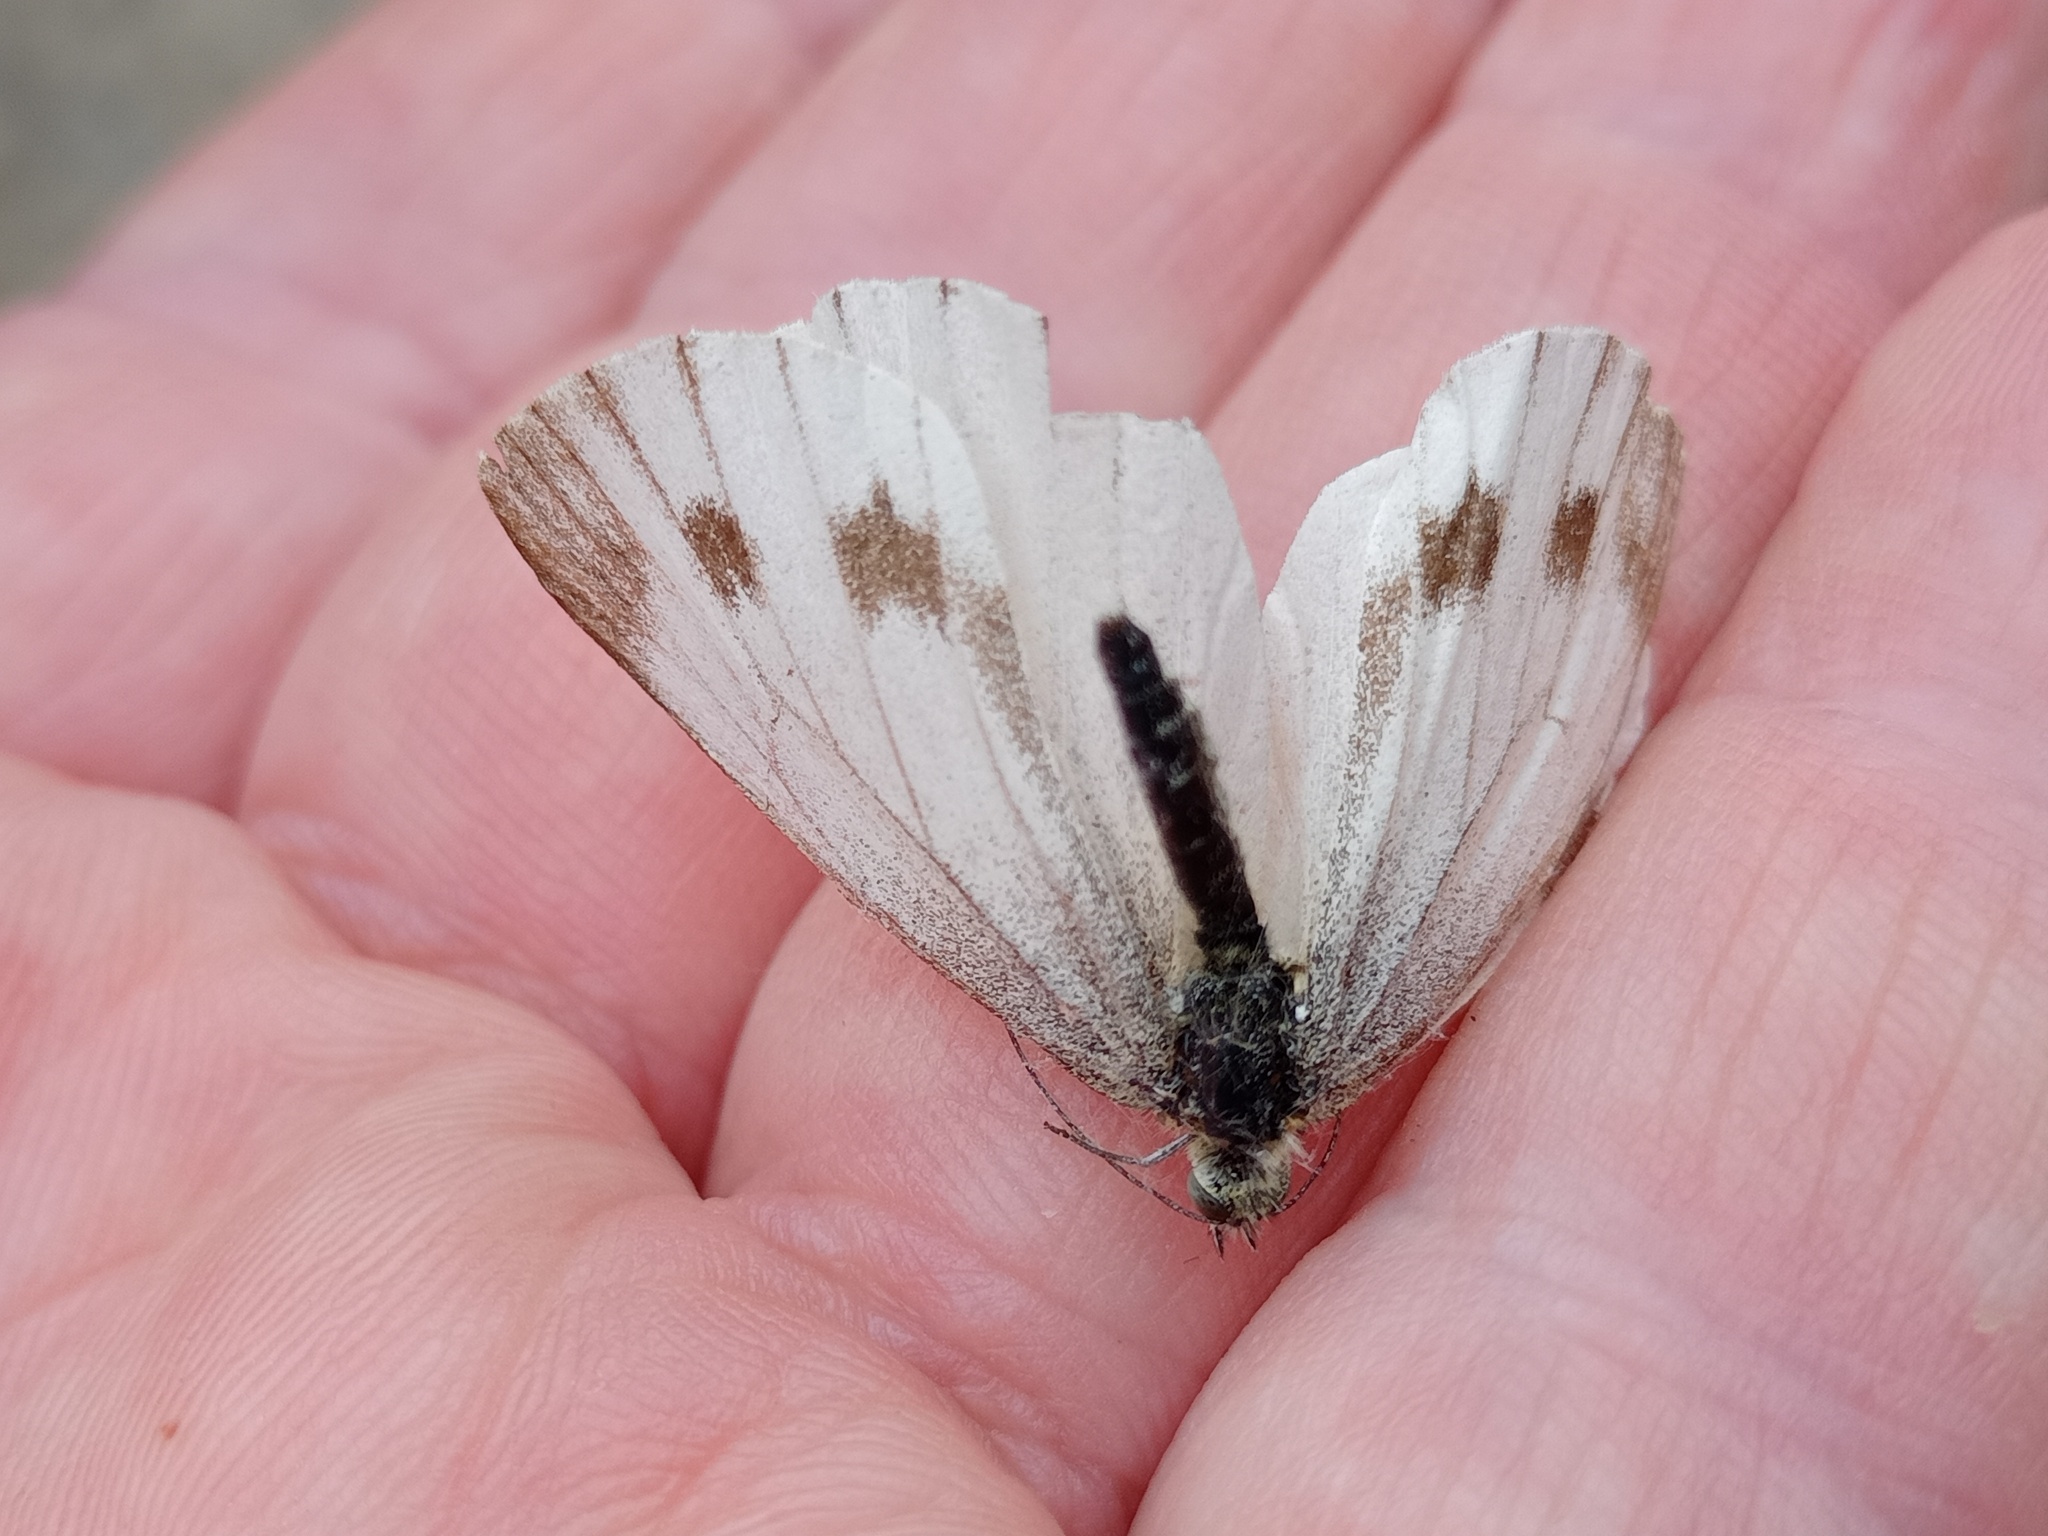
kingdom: Animalia
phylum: Arthropoda
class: Insecta
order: Lepidoptera
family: Pieridae
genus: Pieris
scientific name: Pieris napi
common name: Green-veined white
